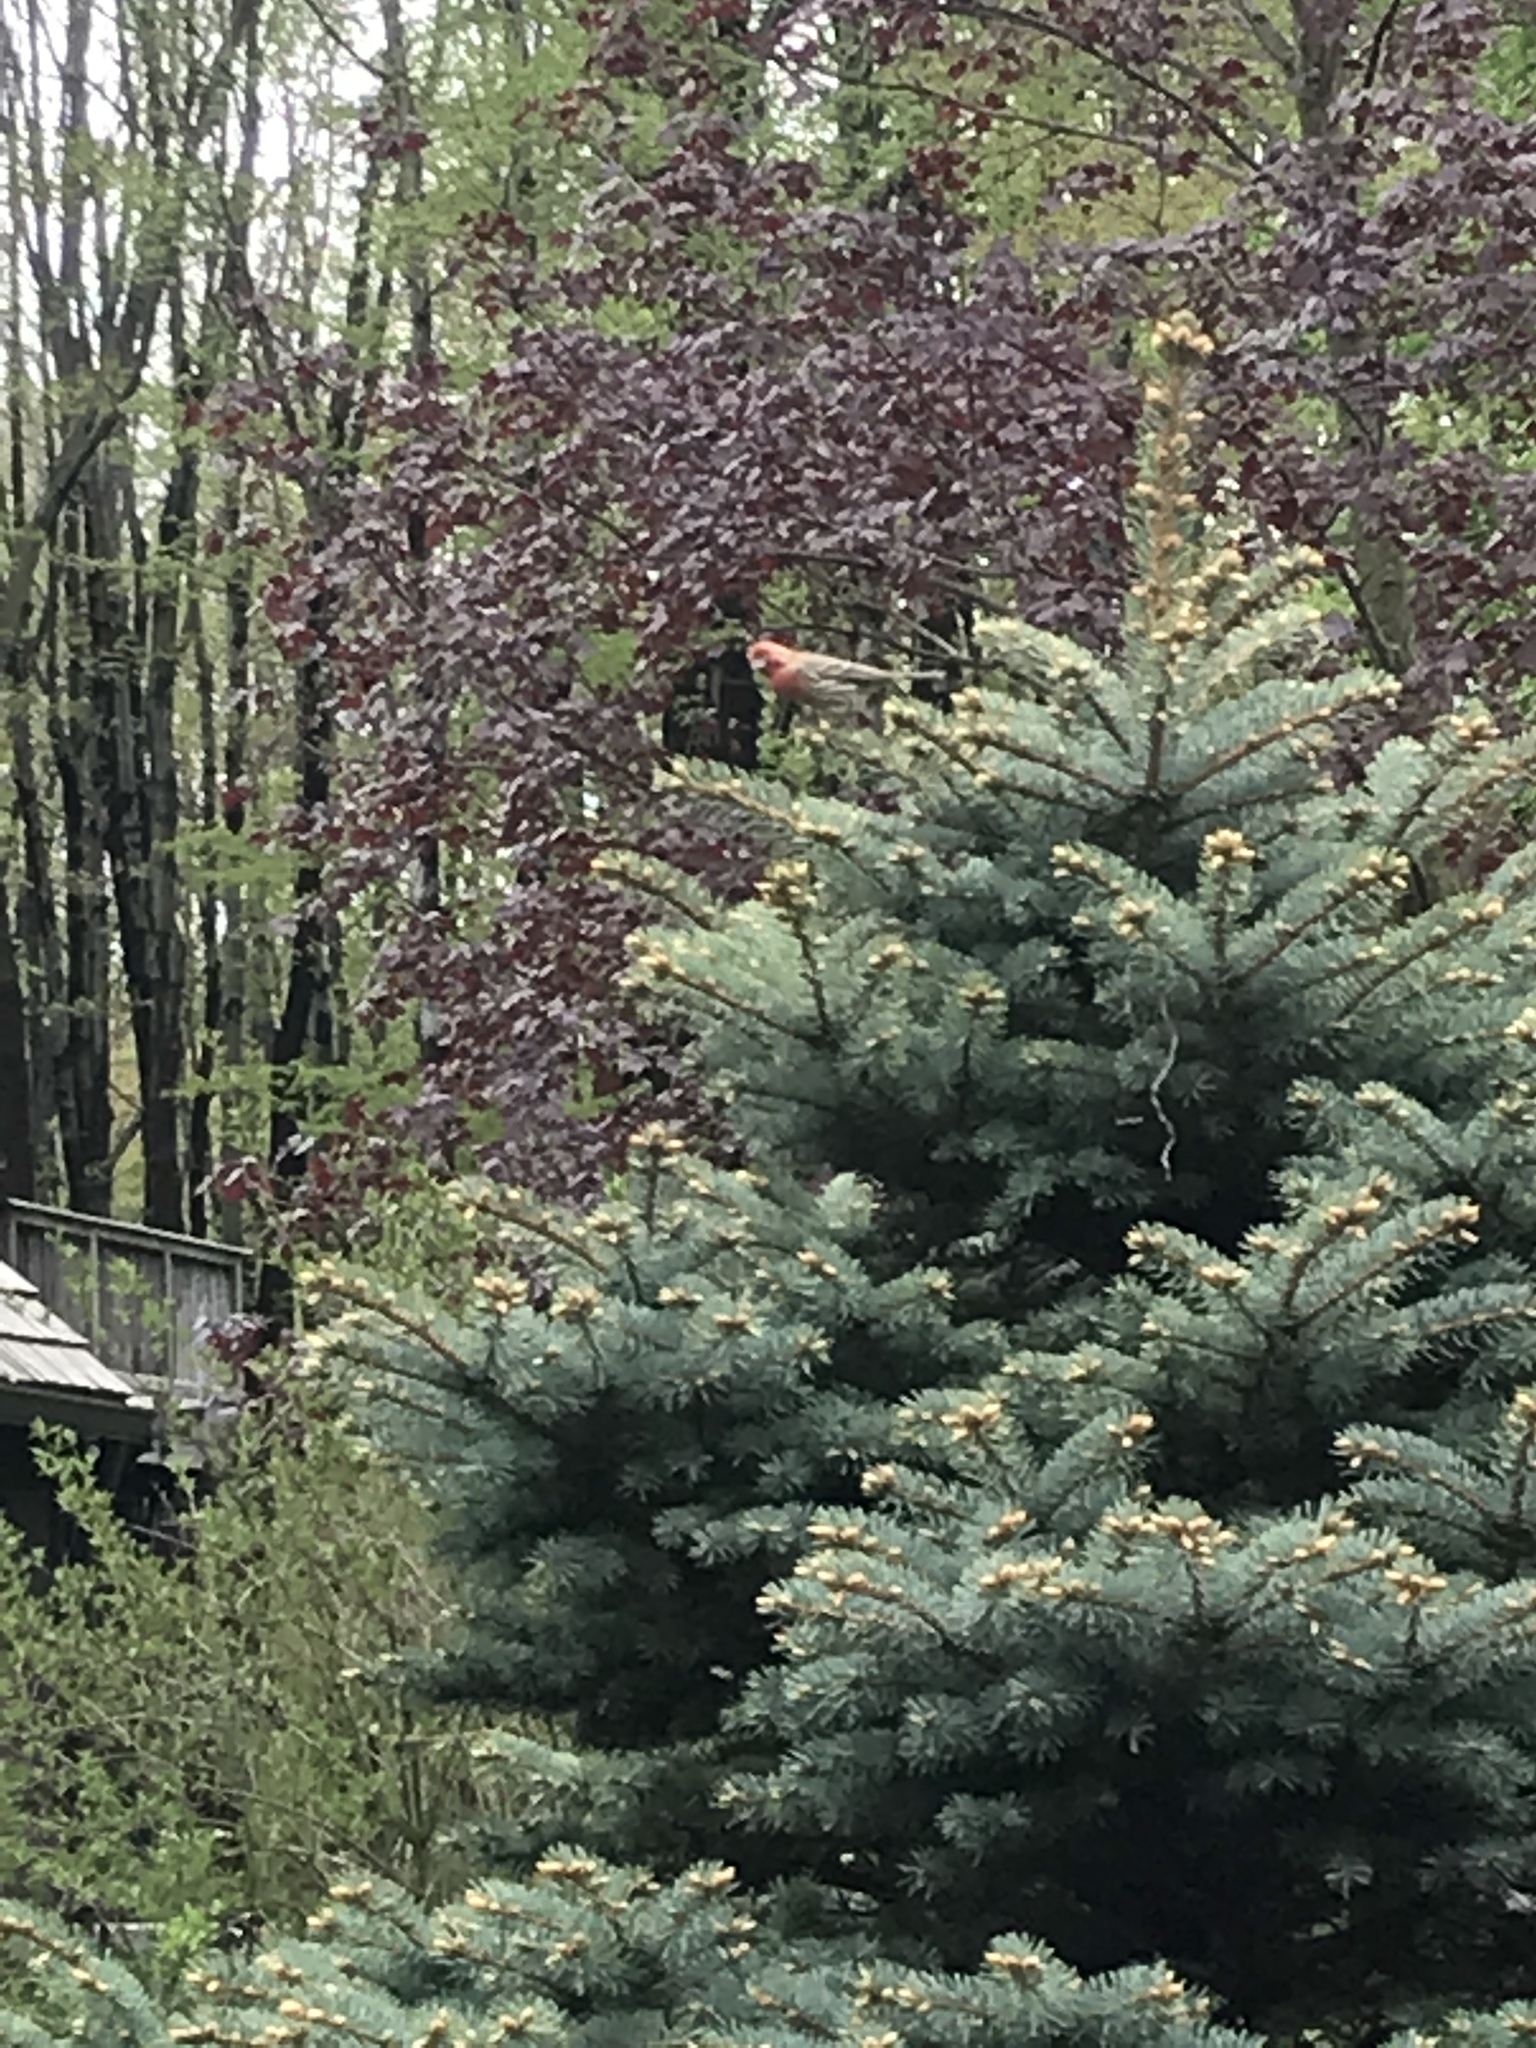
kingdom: Animalia
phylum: Chordata
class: Aves
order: Passeriformes
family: Fringillidae
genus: Haemorhous
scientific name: Haemorhous mexicanus
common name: House finch
